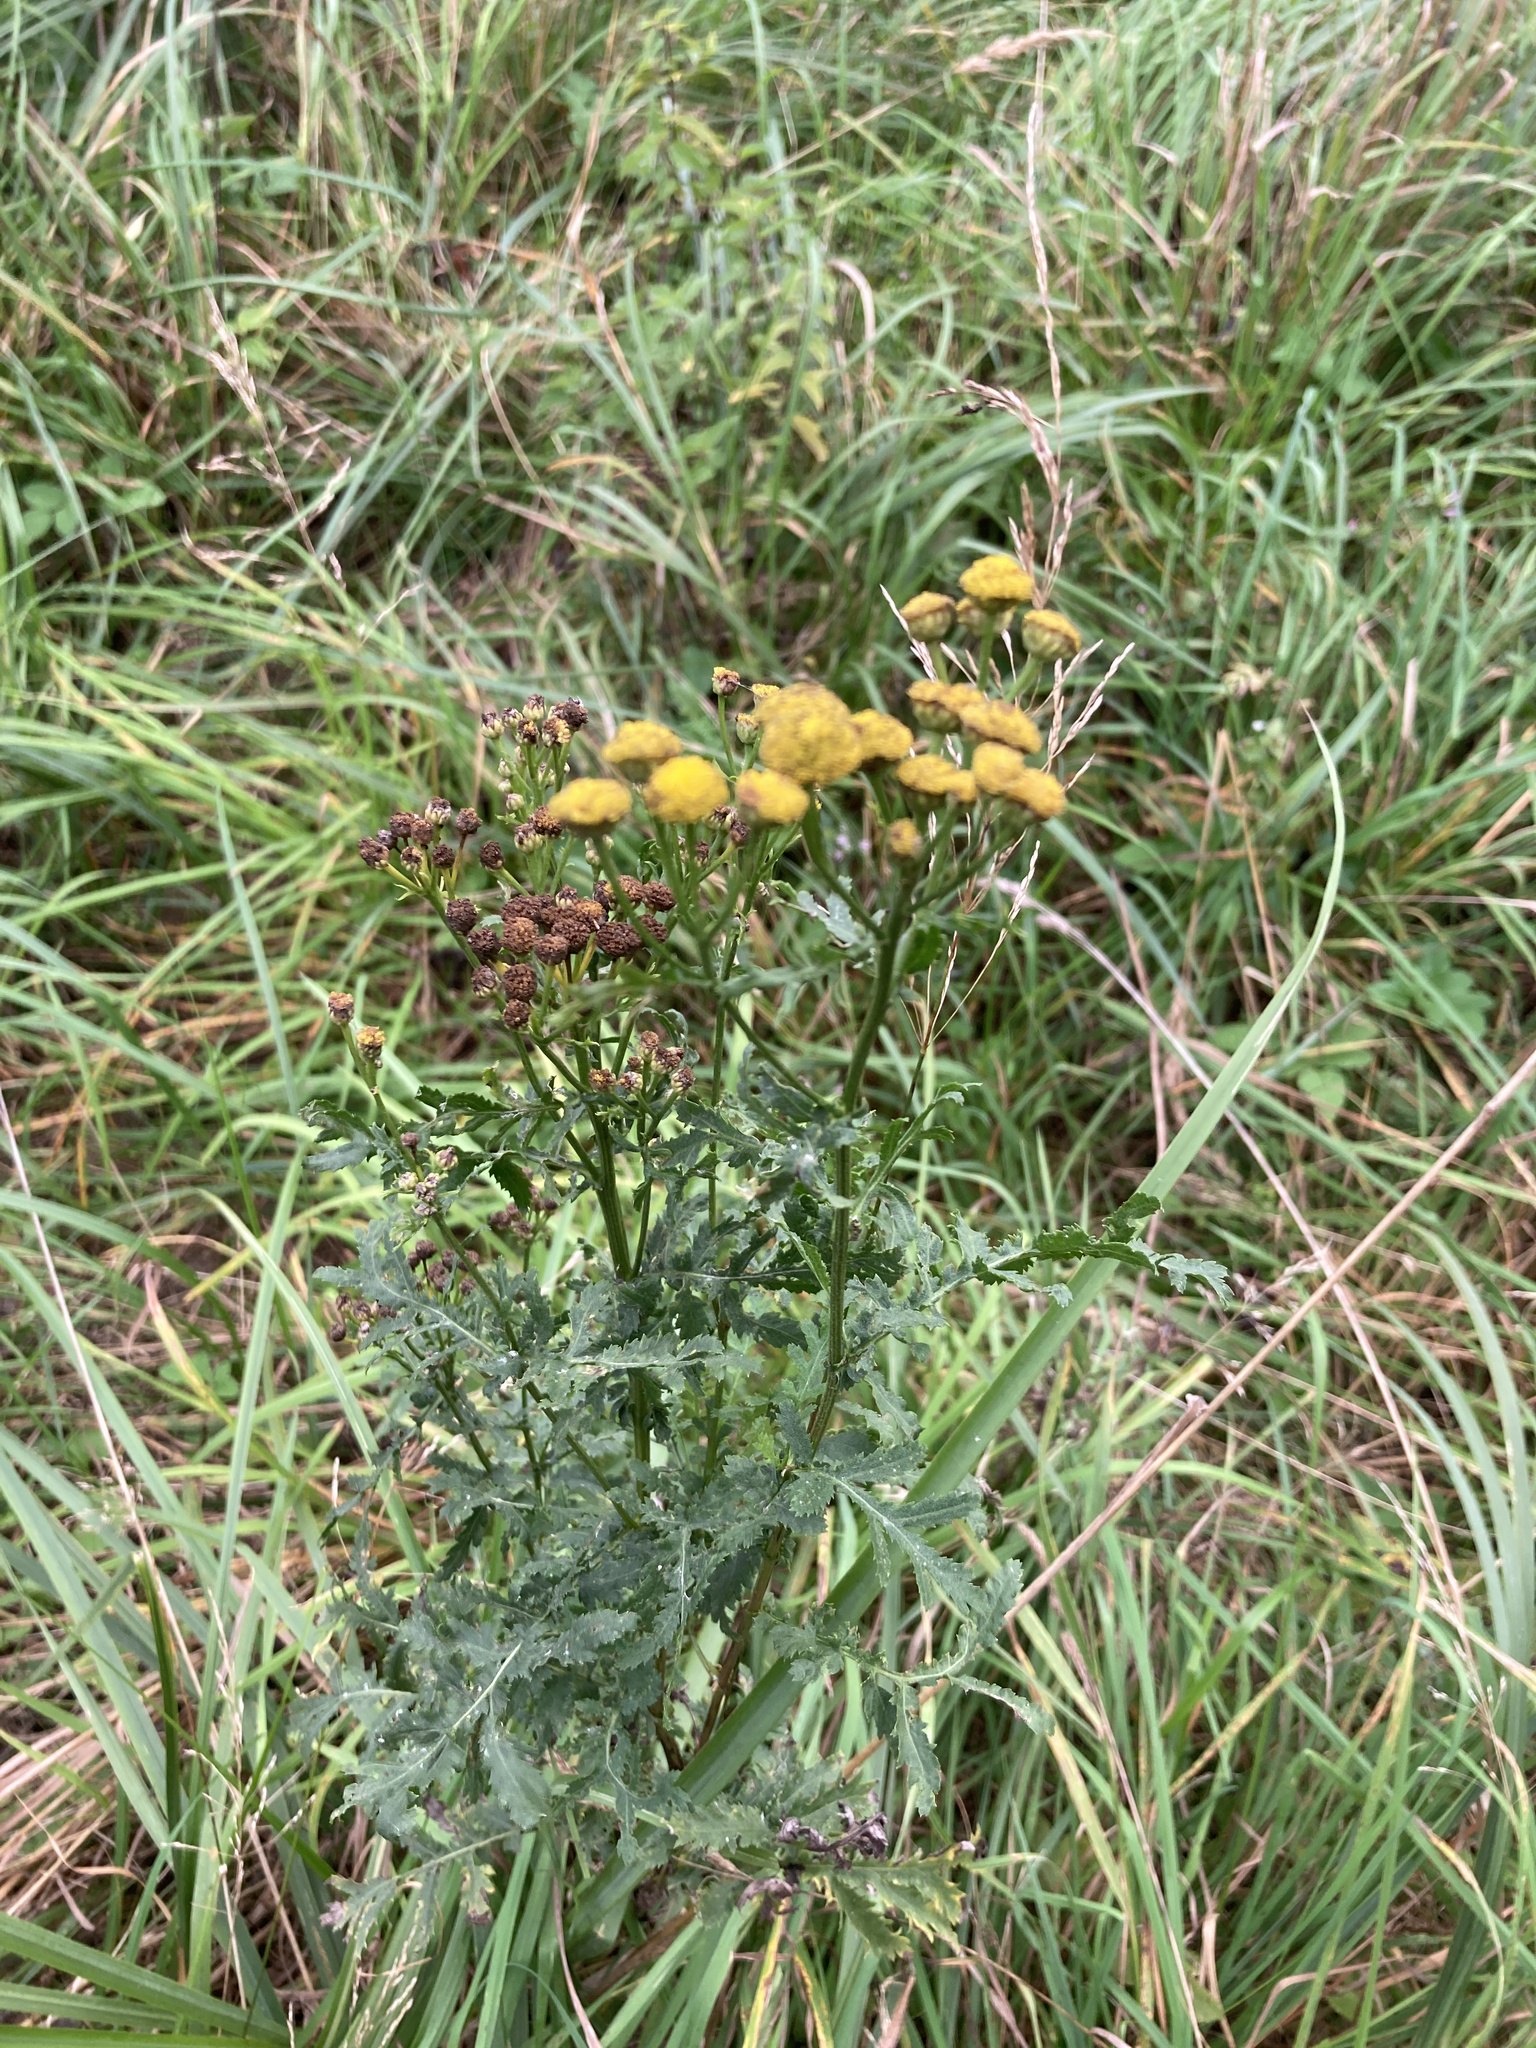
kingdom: Plantae
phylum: Tracheophyta
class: Magnoliopsida
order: Asterales
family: Asteraceae
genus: Tanacetum
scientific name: Tanacetum vulgare
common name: Common tansy
